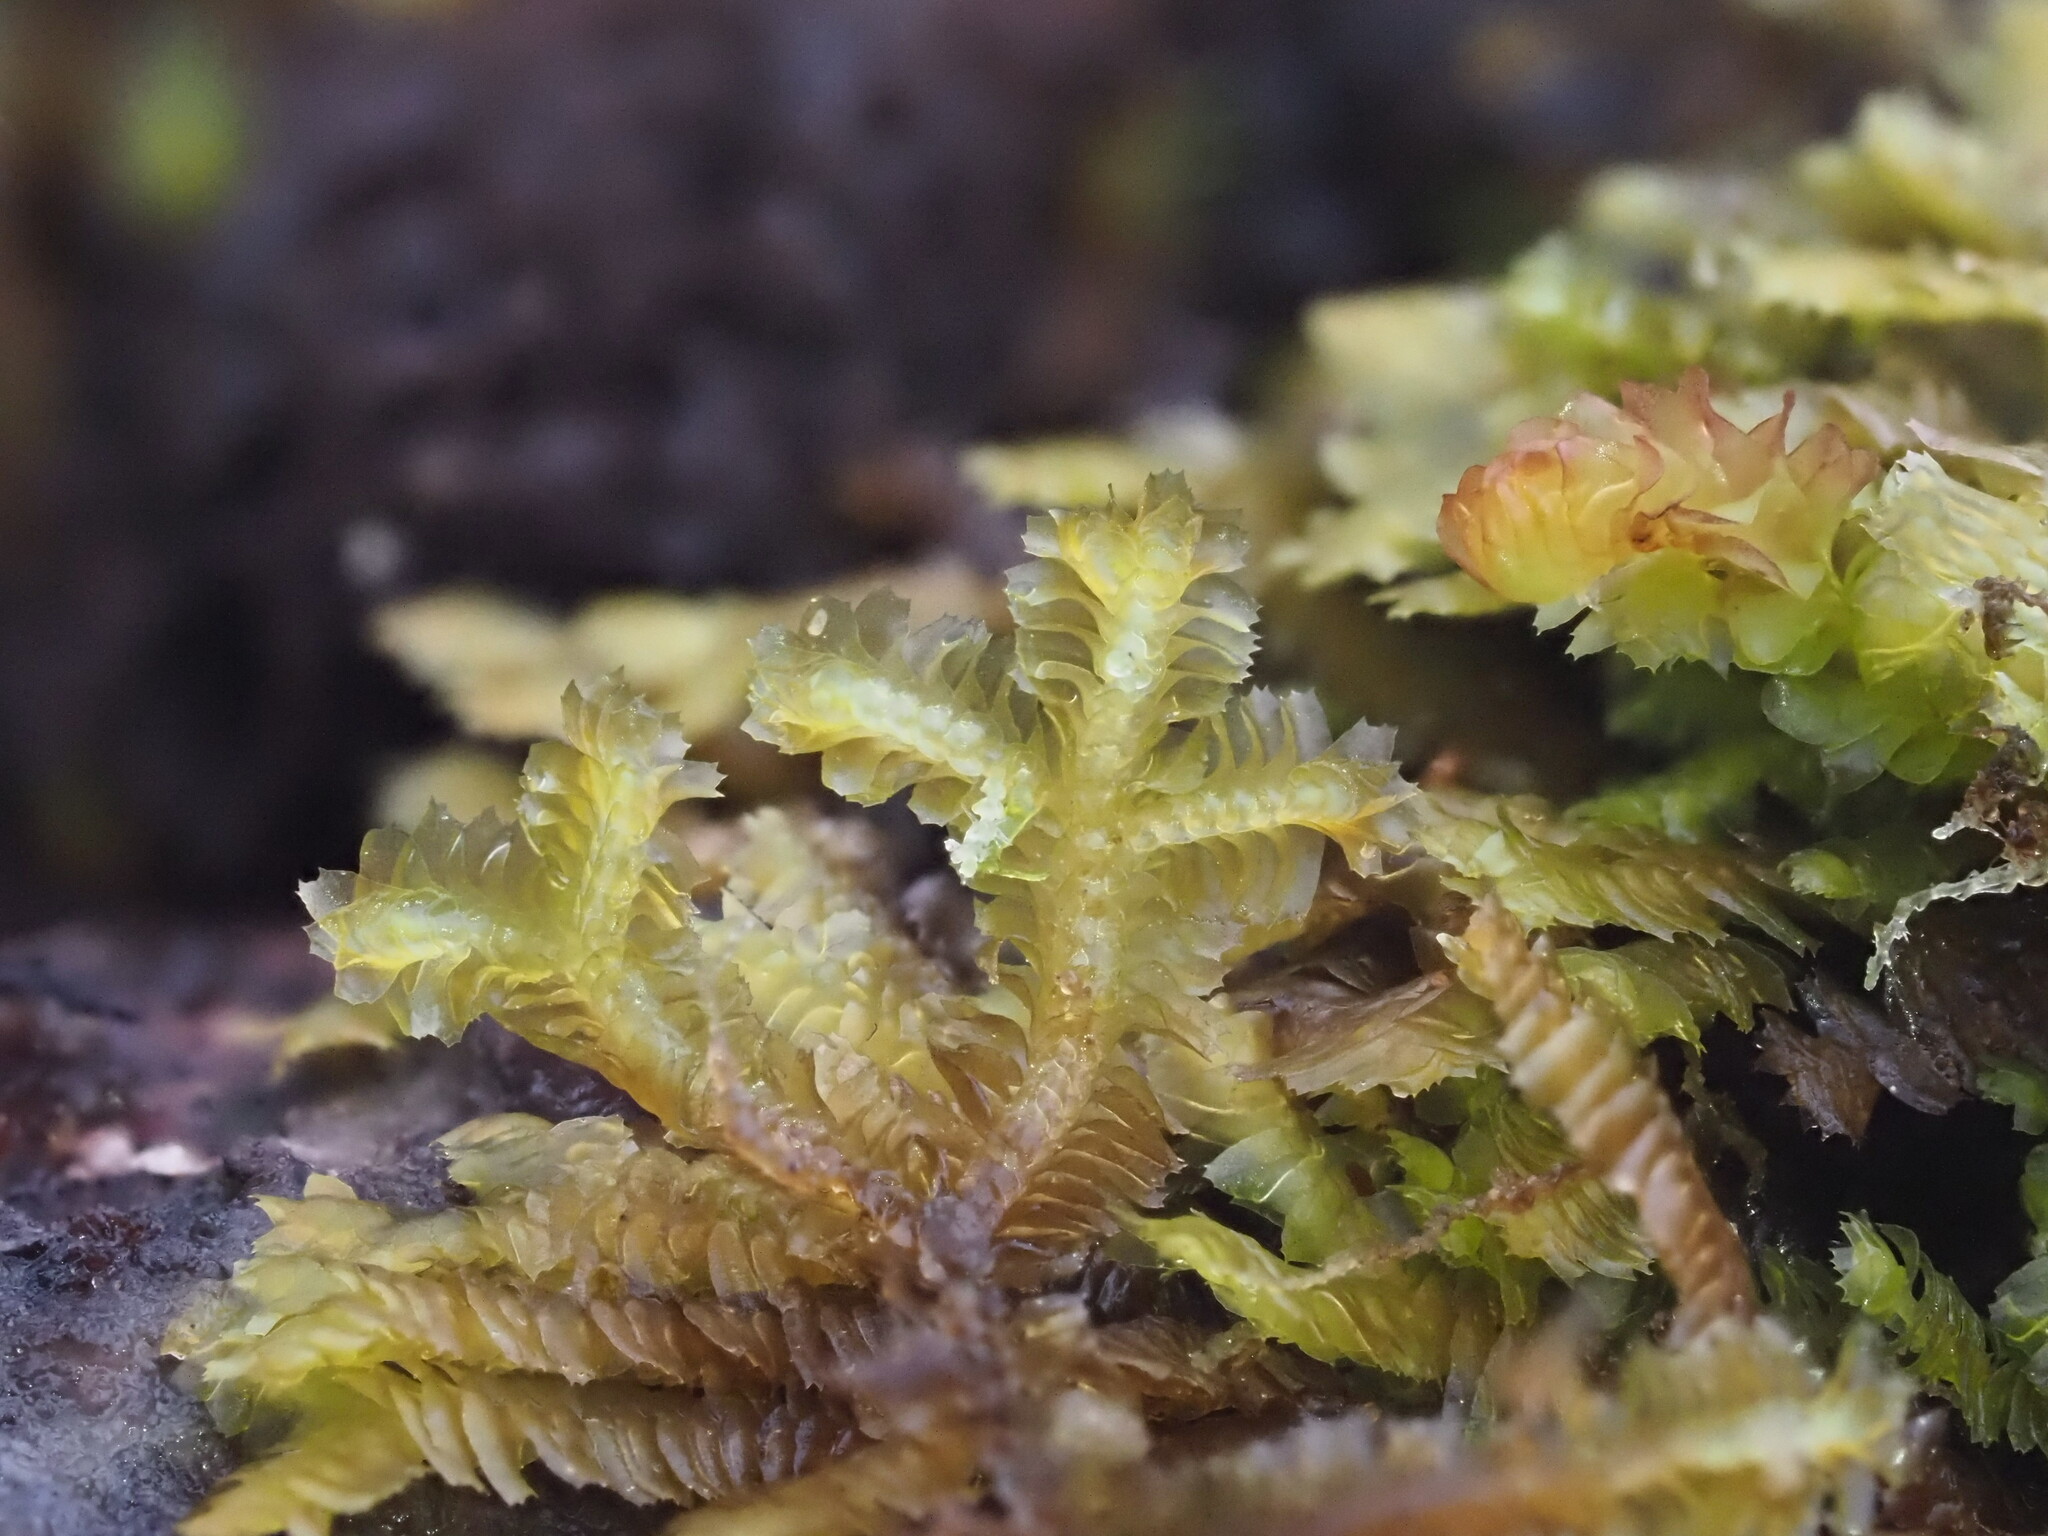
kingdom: Plantae
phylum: Marchantiophyta
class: Jungermanniopsida
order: Jungermanniales
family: Lepidoziaceae
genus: Bazzania
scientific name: Bazzania praerupta
